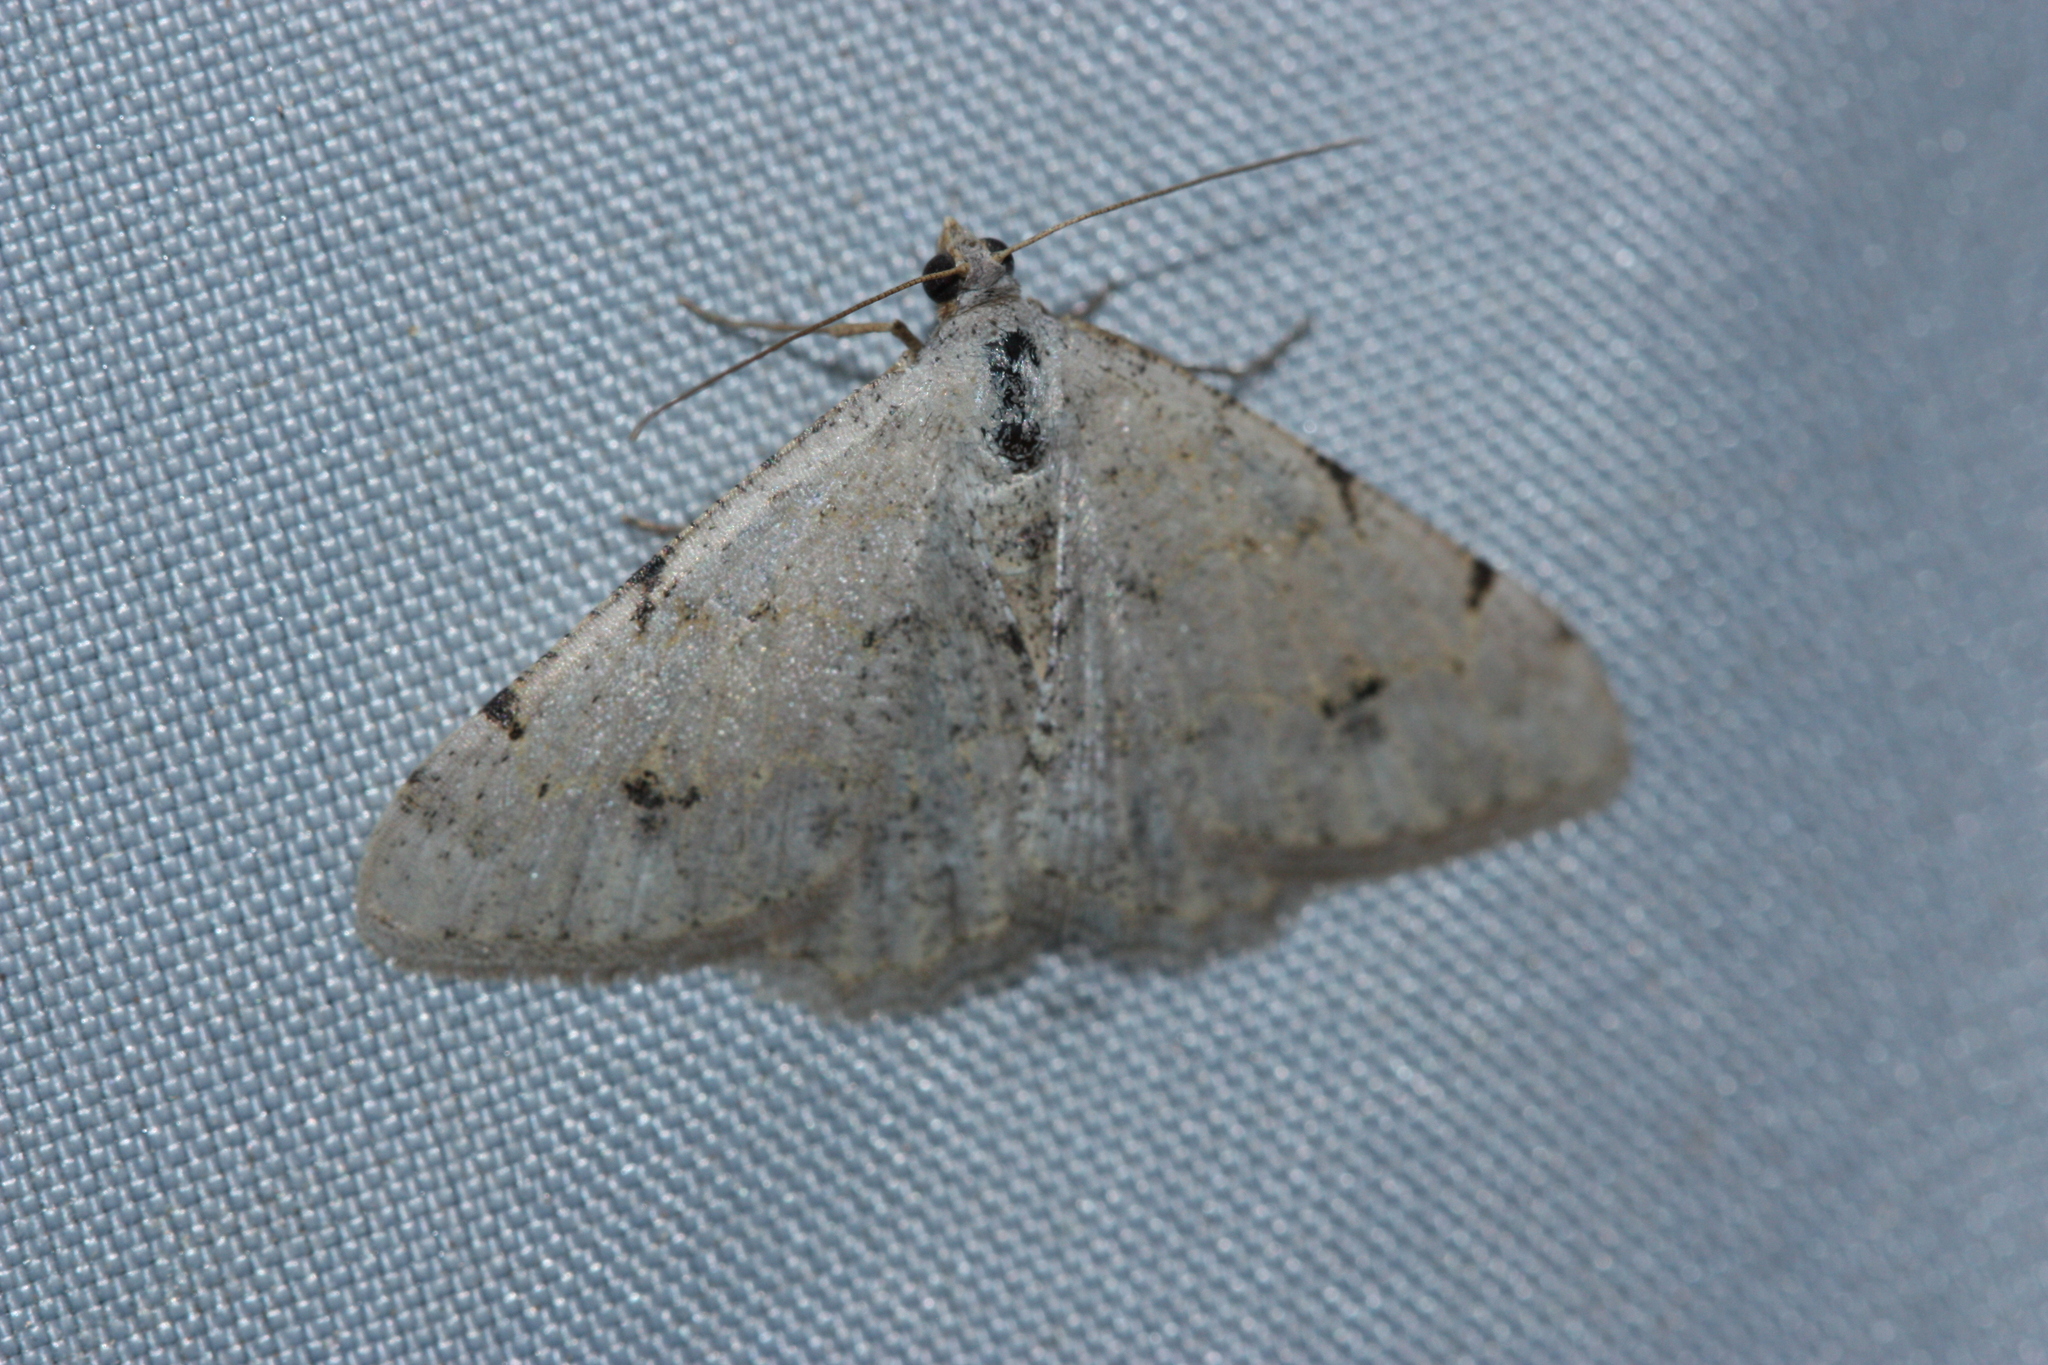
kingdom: Animalia
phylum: Arthropoda
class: Insecta
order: Lepidoptera
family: Geometridae
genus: Digrammia
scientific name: Digrammia colorata
